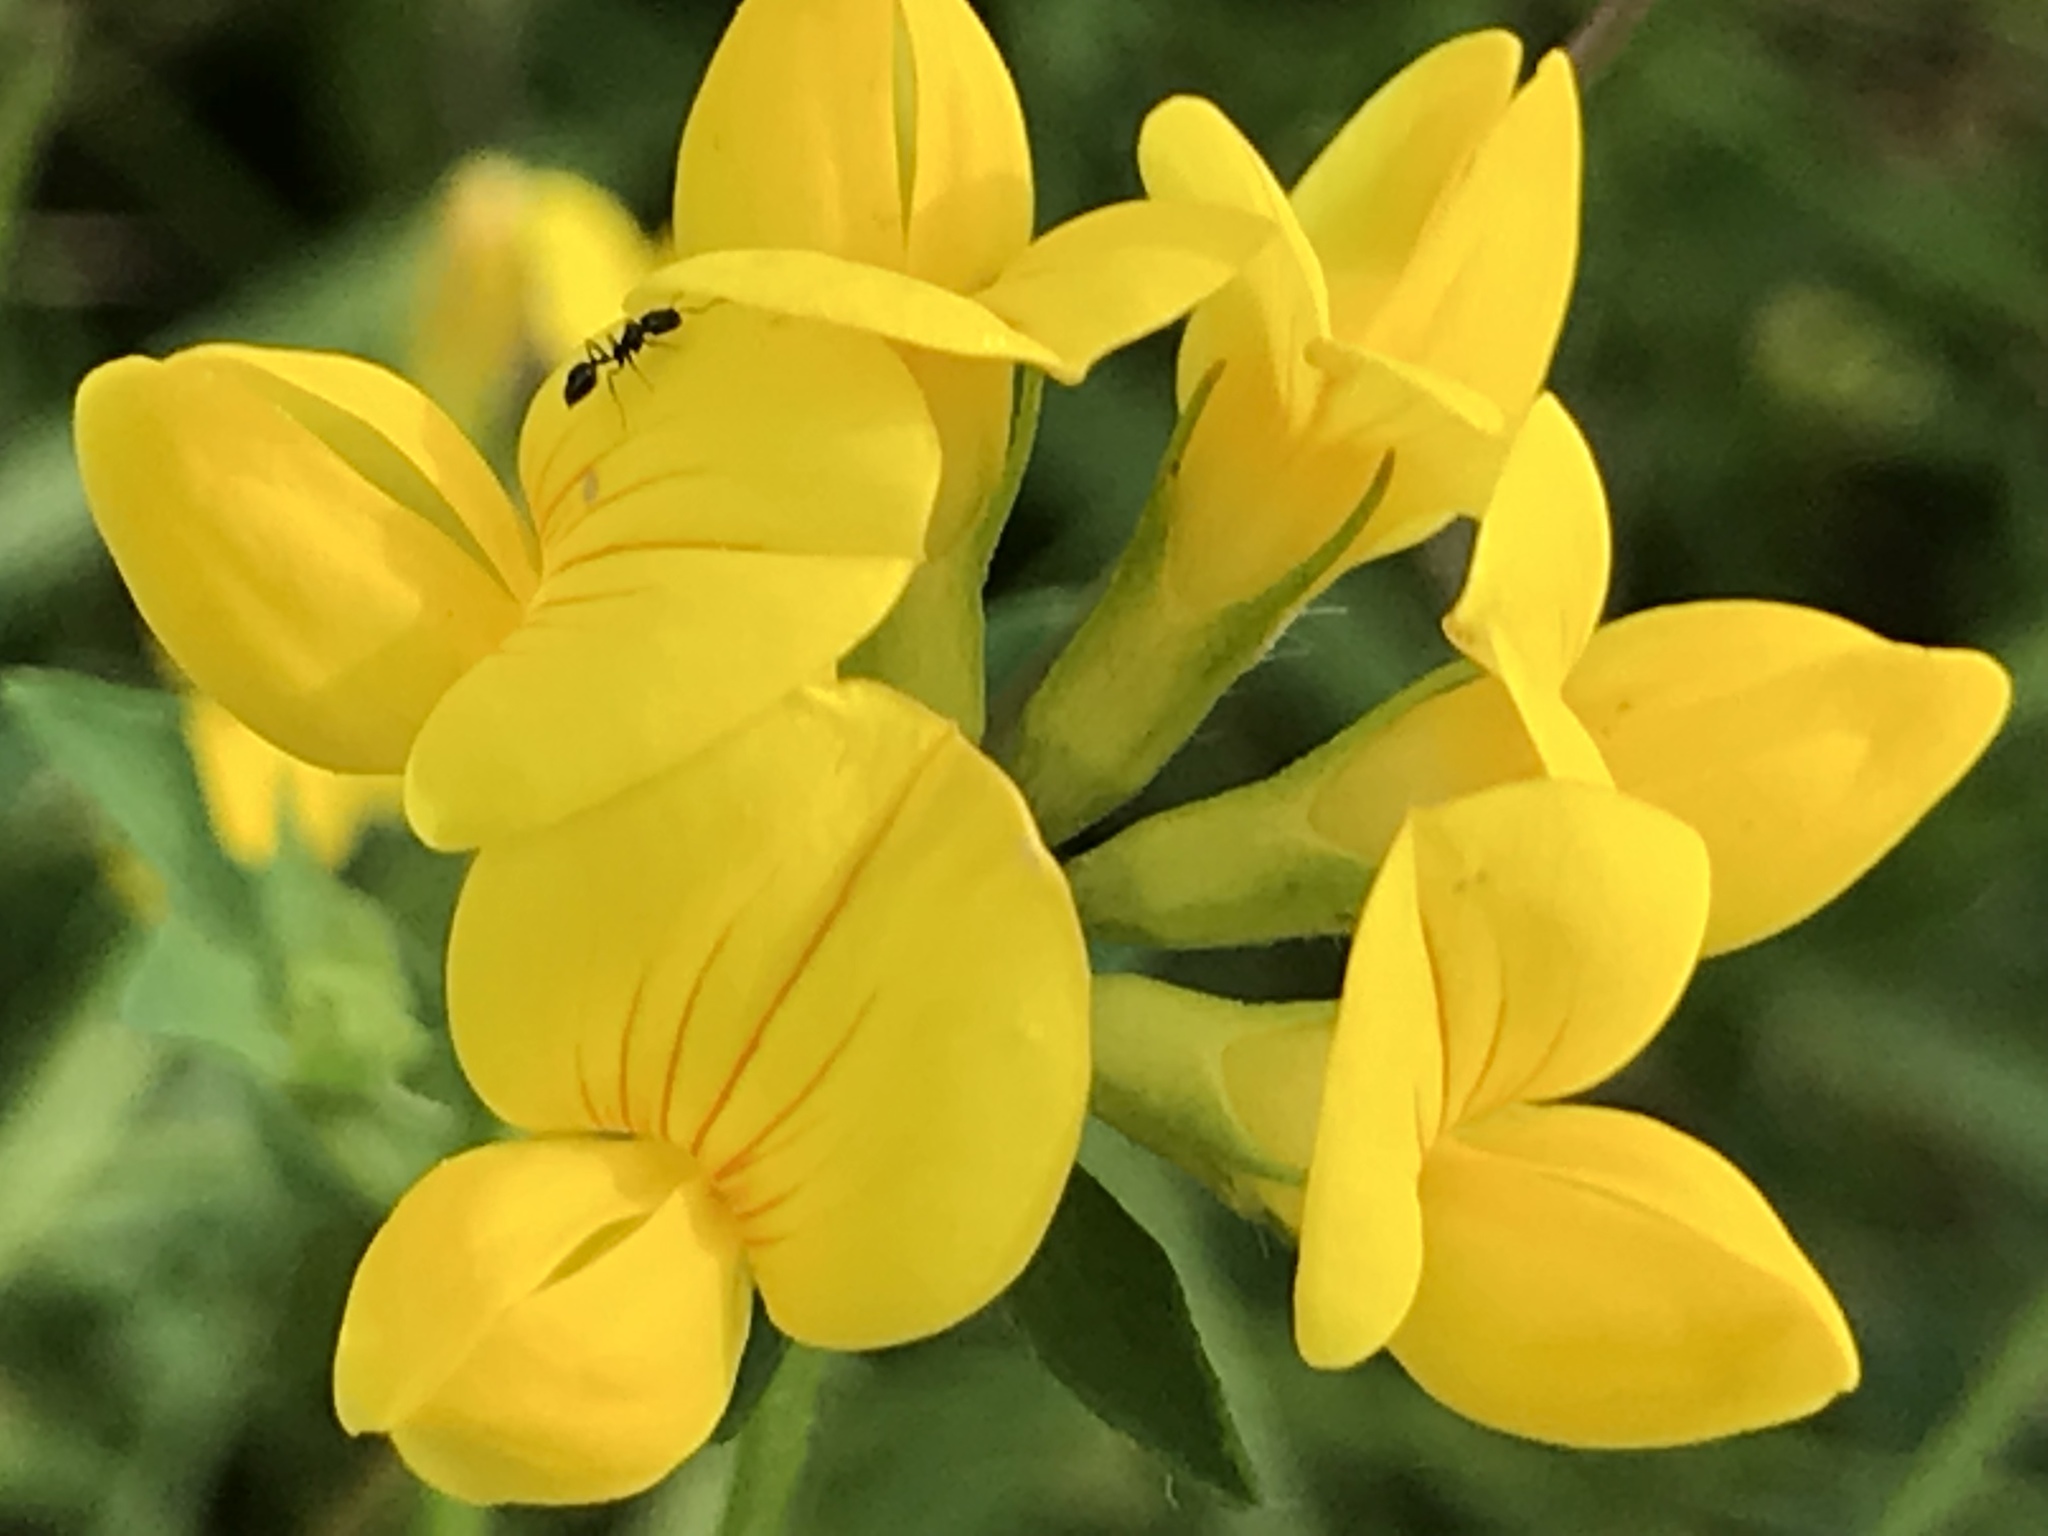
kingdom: Plantae
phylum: Tracheophyta
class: Magnoliopsida
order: Fabales
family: Fabaceae
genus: Lotus
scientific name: Lotus corniculatus
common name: Common bird's-foot-trefoil
